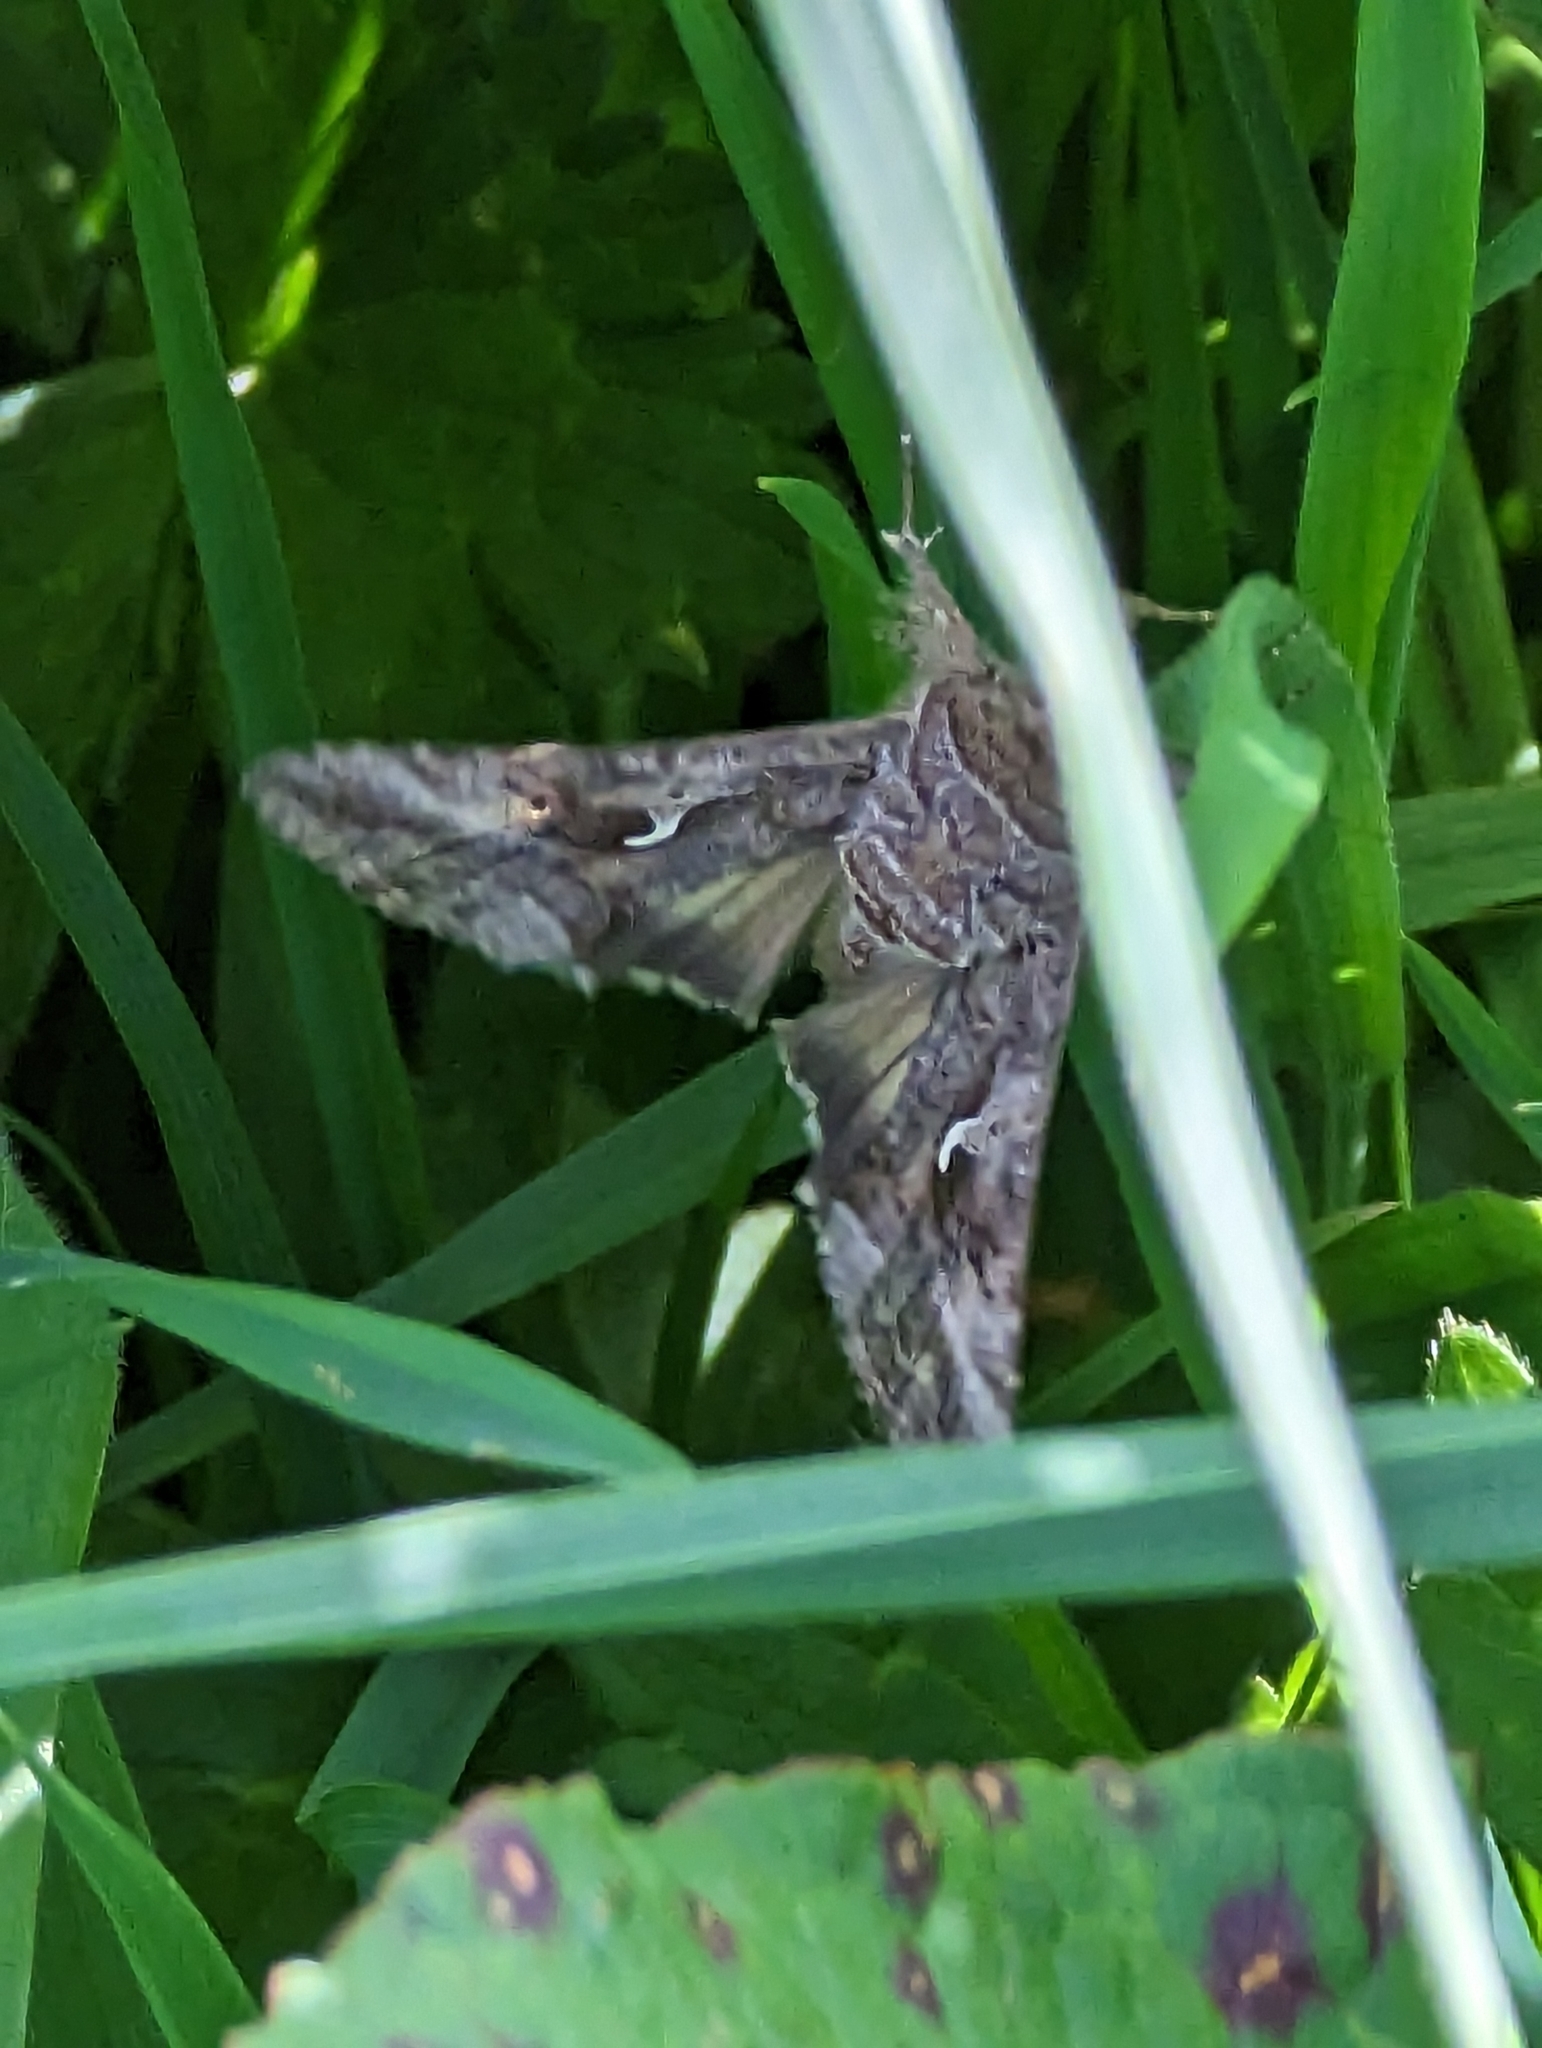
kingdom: Animalia
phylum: Arthropoda
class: Insecta
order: Lepidoptera
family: Noctuidae
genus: Autographa
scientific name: Autographa gamma
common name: Silver y
